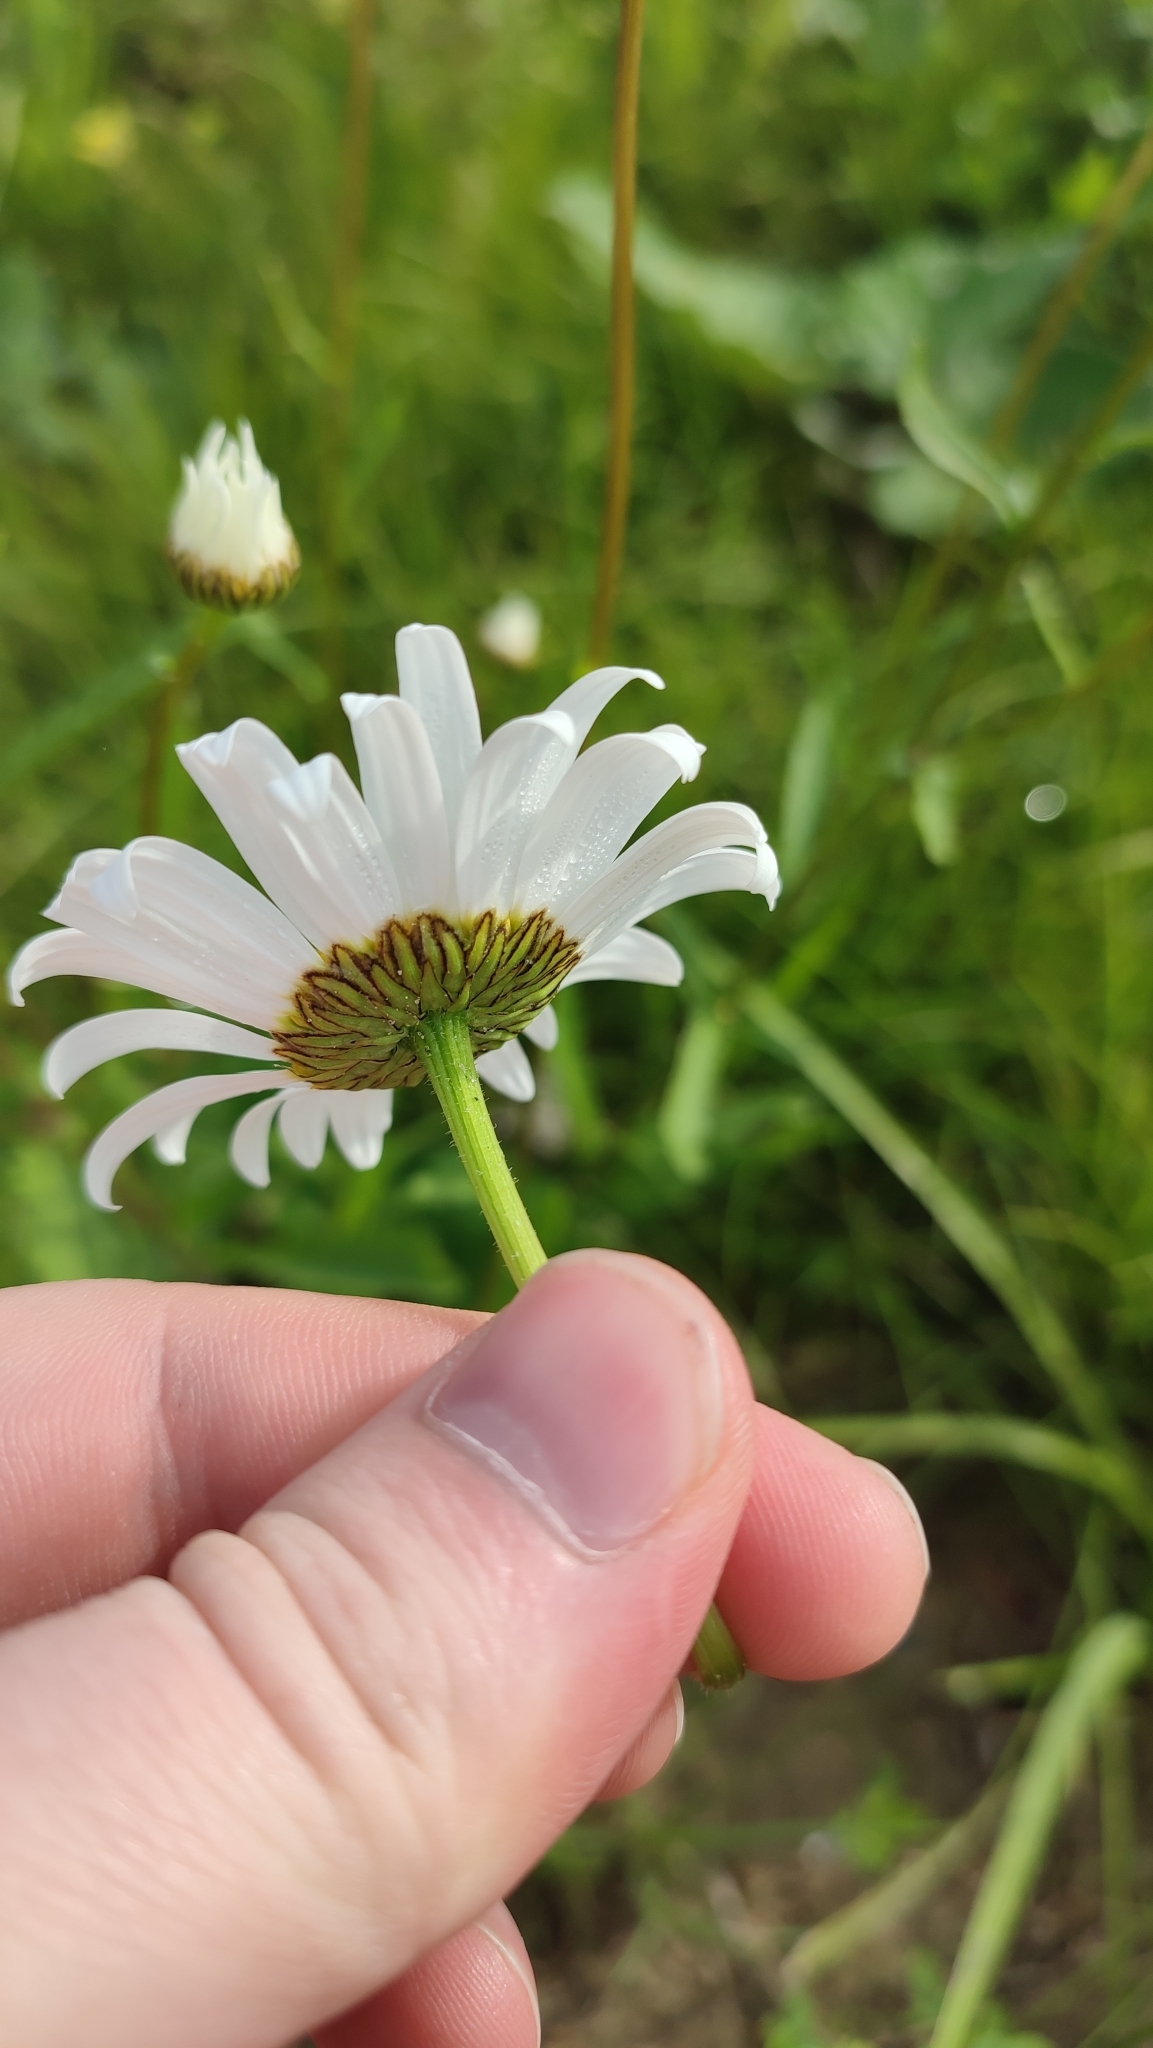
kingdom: Plantae
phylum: Tracheophyta
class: Magnoliopsida
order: Asterales
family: Asteraceae
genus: Leucanthemum
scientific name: Leucanthemum ircutianum
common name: Daisy
